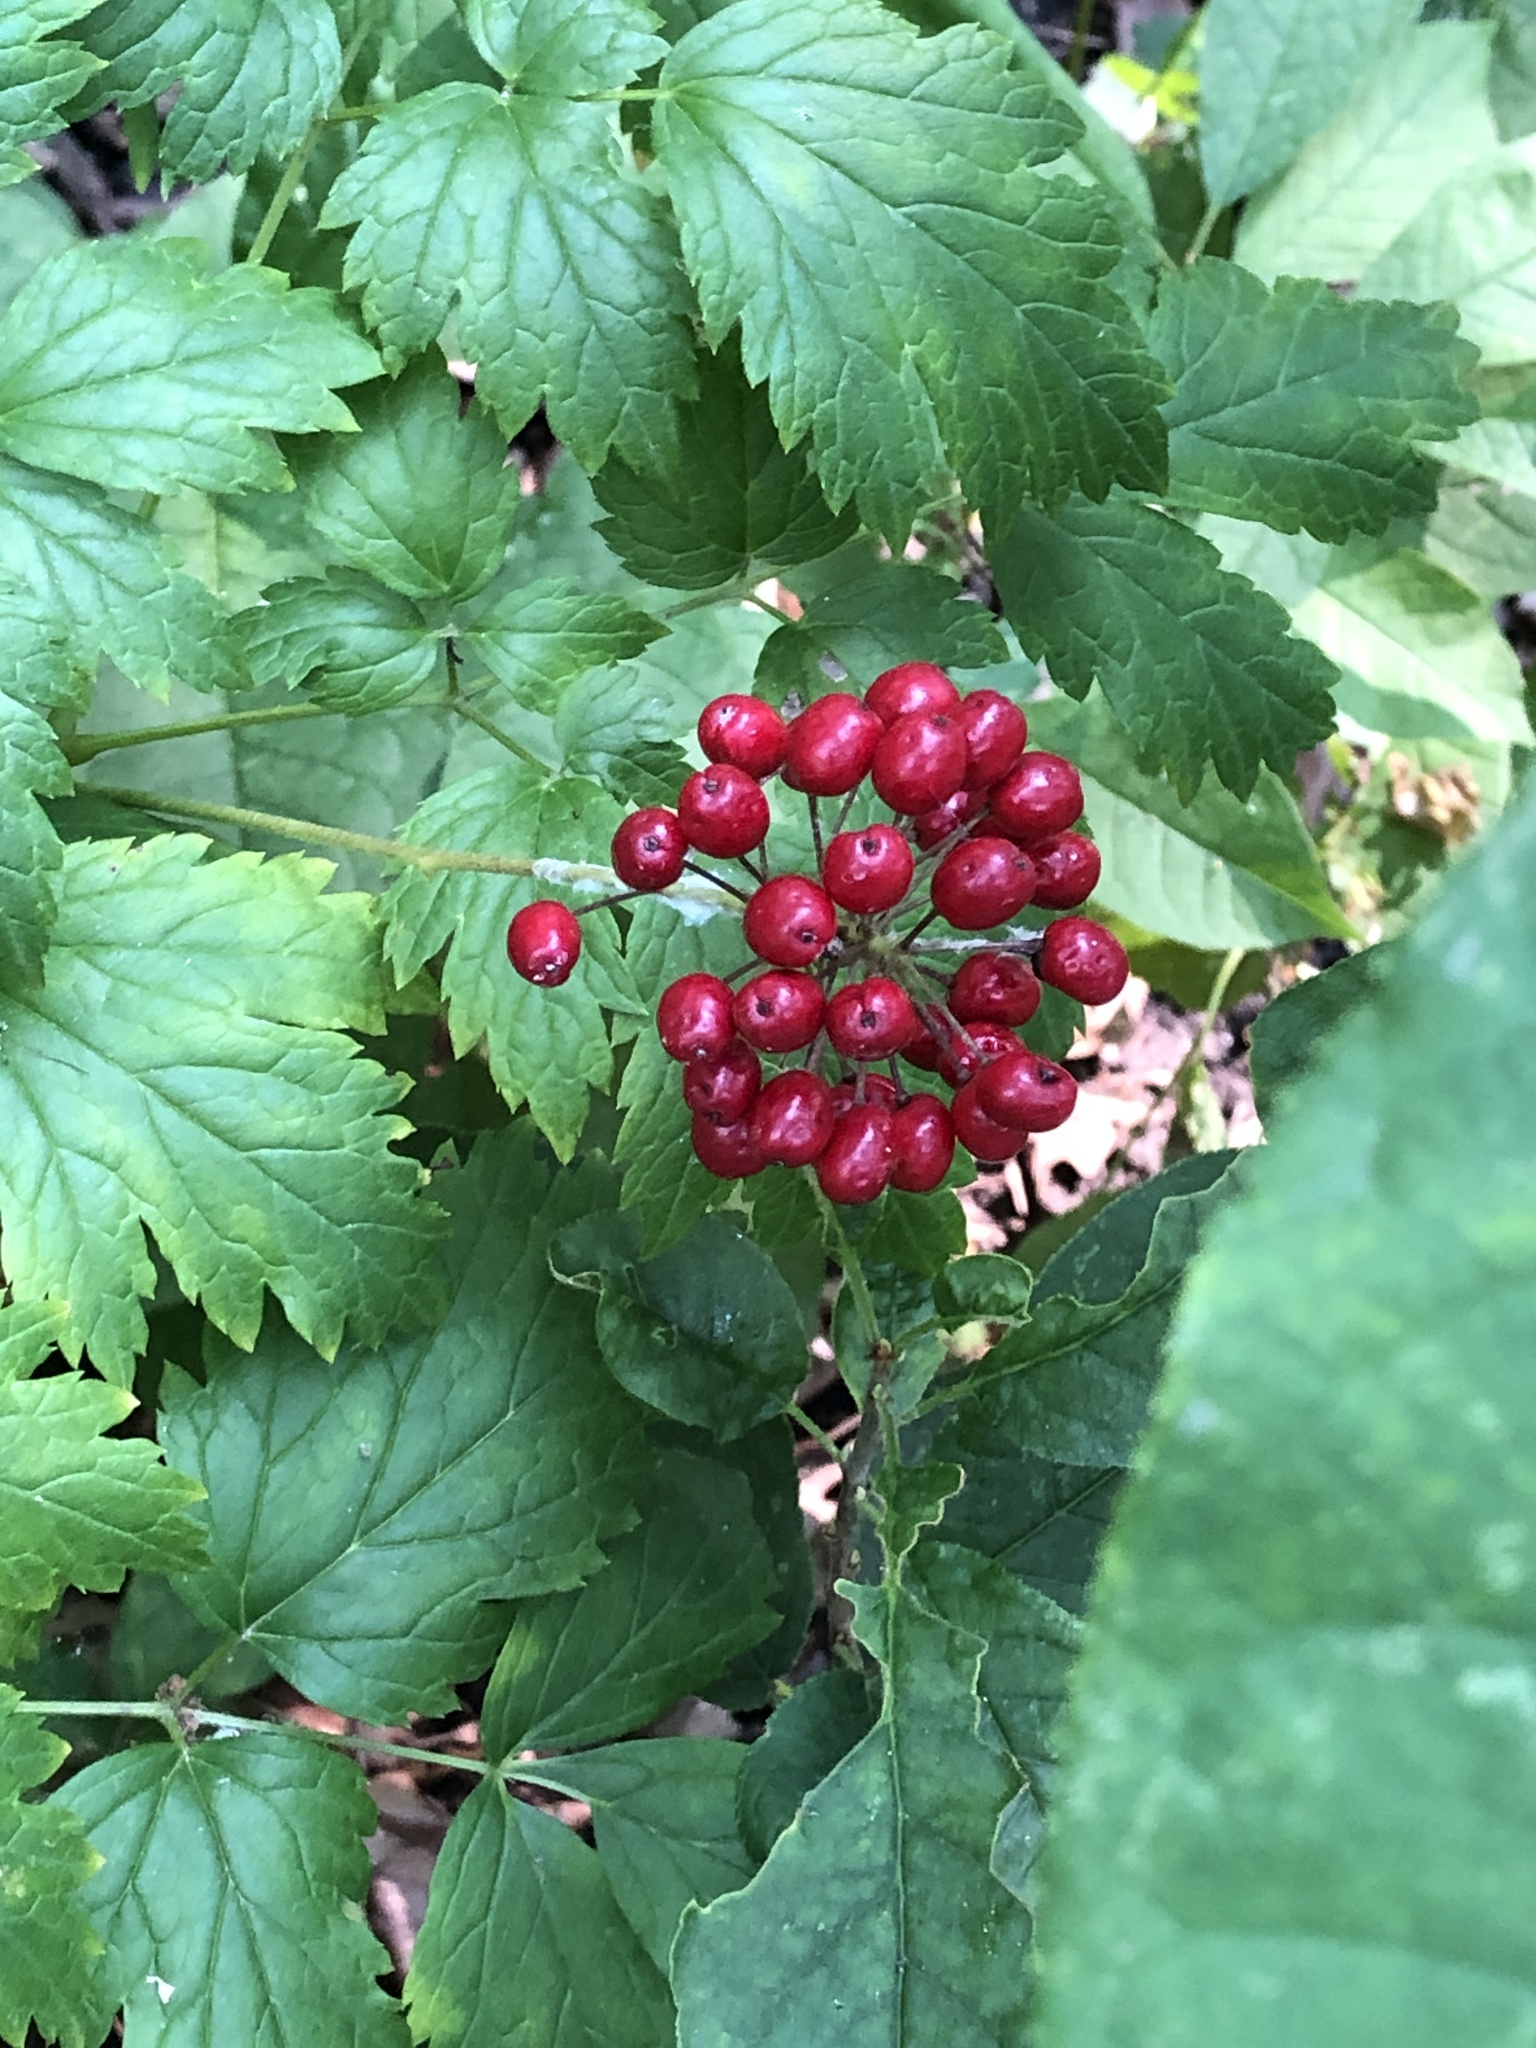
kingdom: Plantae
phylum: Tracheophyta
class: Magnoliopsida
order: Ranunculales
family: Ranunculaceae
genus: Actaea
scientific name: Actaea rubra
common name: Red baneberry
